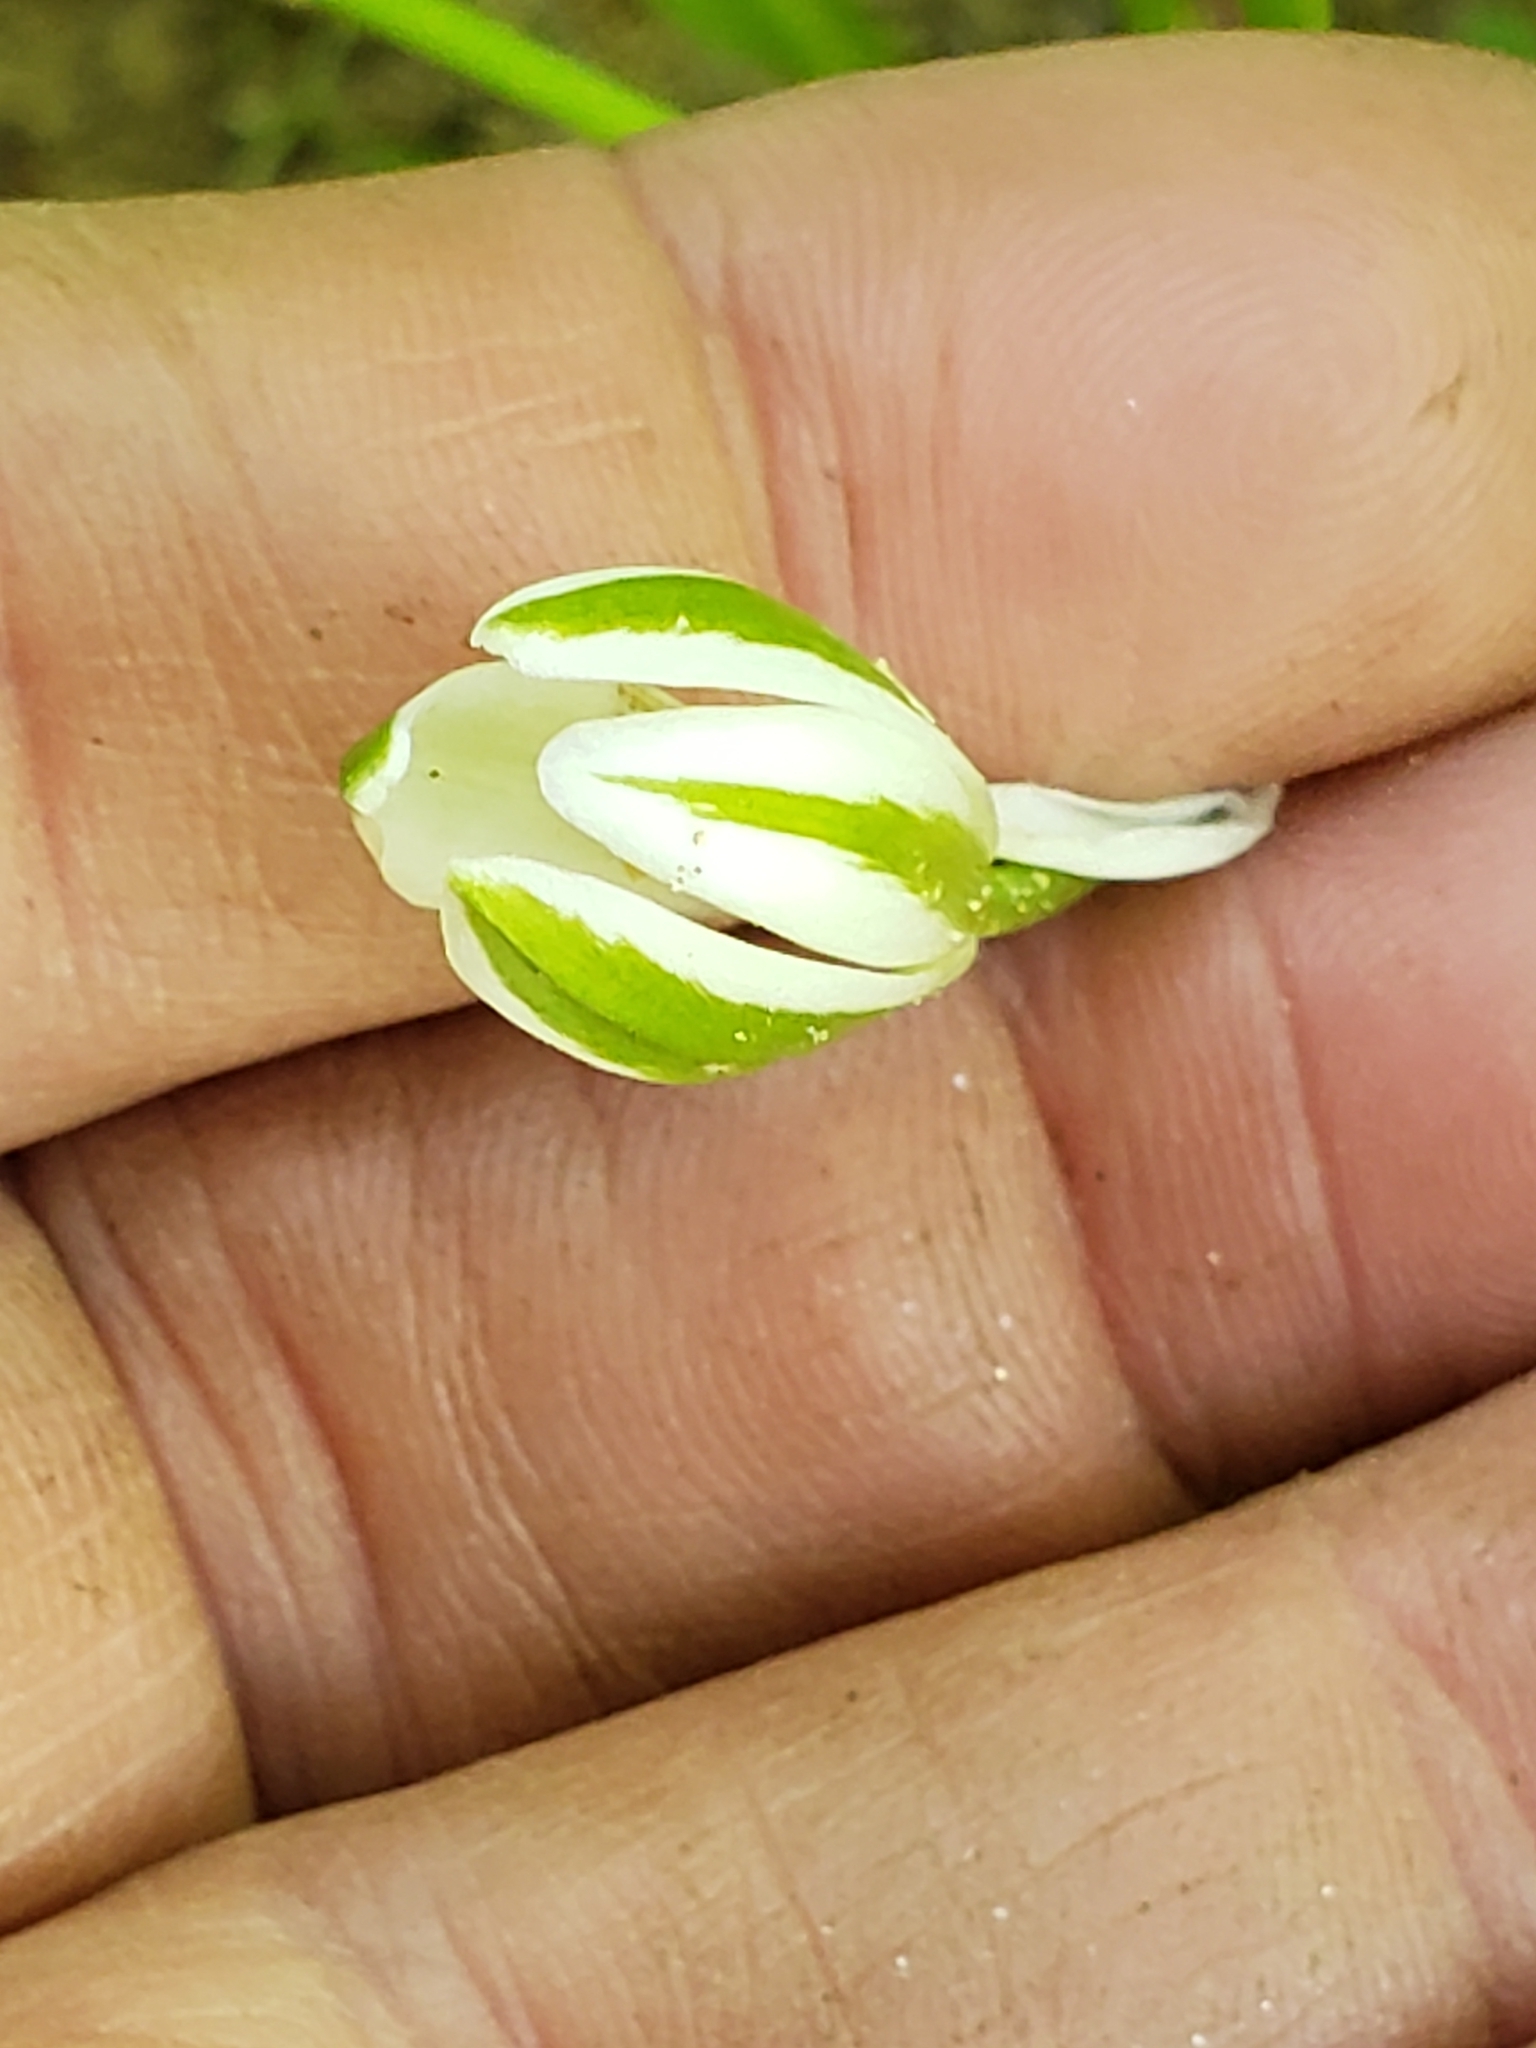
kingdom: Plantae
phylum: Tracheophyta
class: Liliopsida
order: Asparagales
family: Asparagaceae
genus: Ornithogalum
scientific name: Ornithogalum umbellatum
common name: Garden star-of-bethlehem
